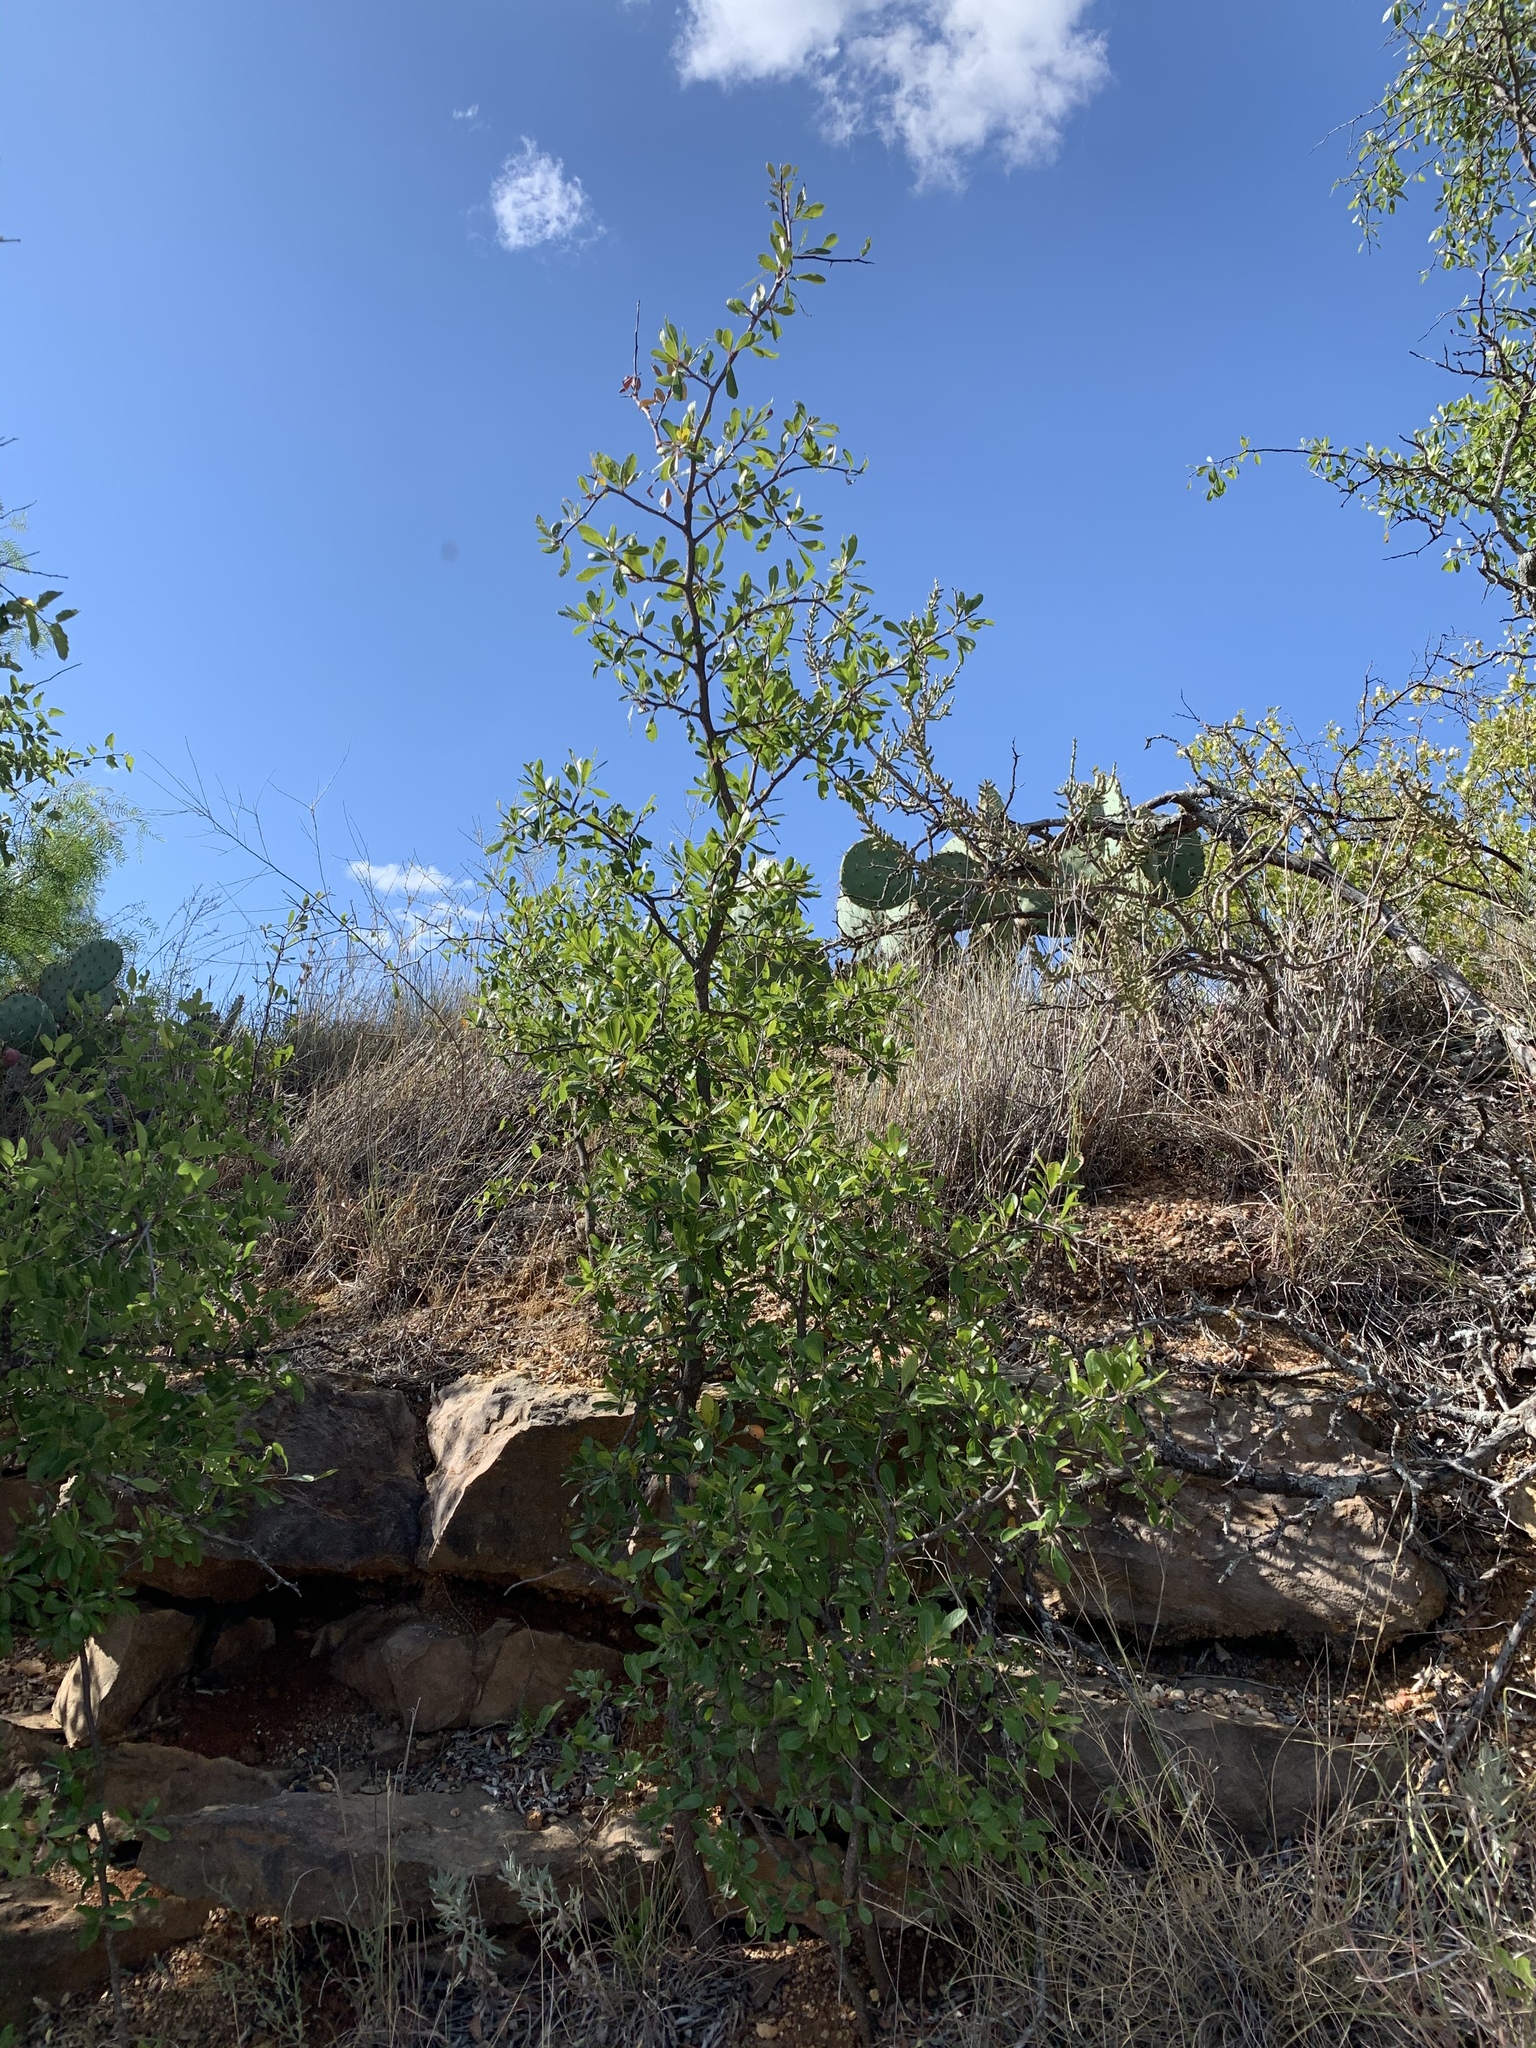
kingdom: Plantae
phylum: Tracheophyta
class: Magnoliopsida
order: Ericales
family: Sapotaceae
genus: Sideroxylon
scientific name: Sideroxylon lanuginosum
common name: Chittamwood
